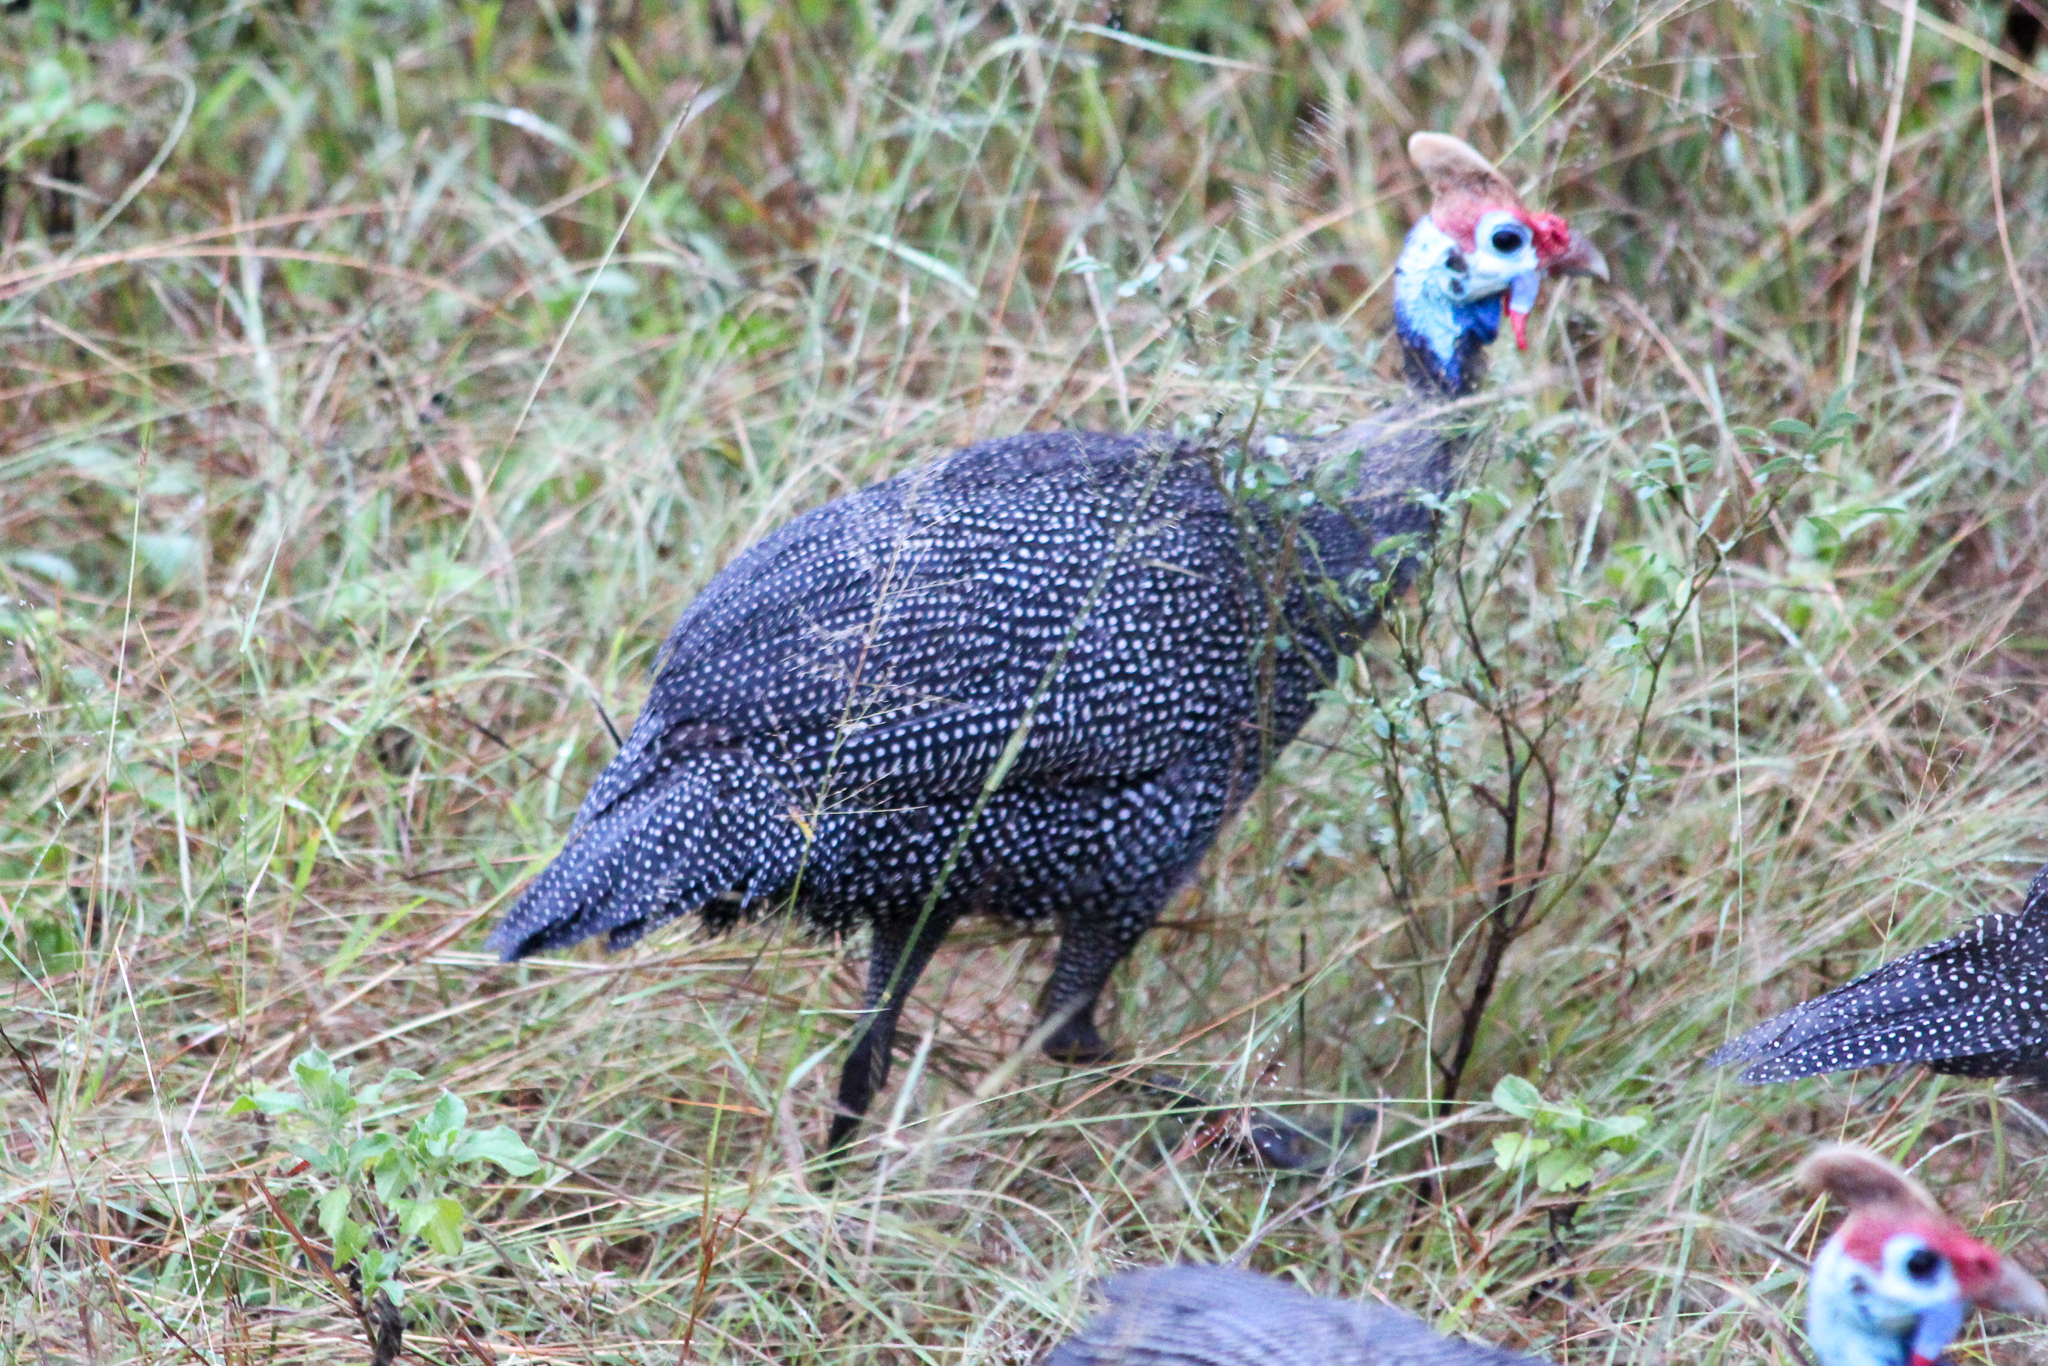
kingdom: Animalia
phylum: Chordata
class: Aves
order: Galliformes
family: Numididae
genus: Numida
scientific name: Numida meleagris
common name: Helmeted guineafowl
